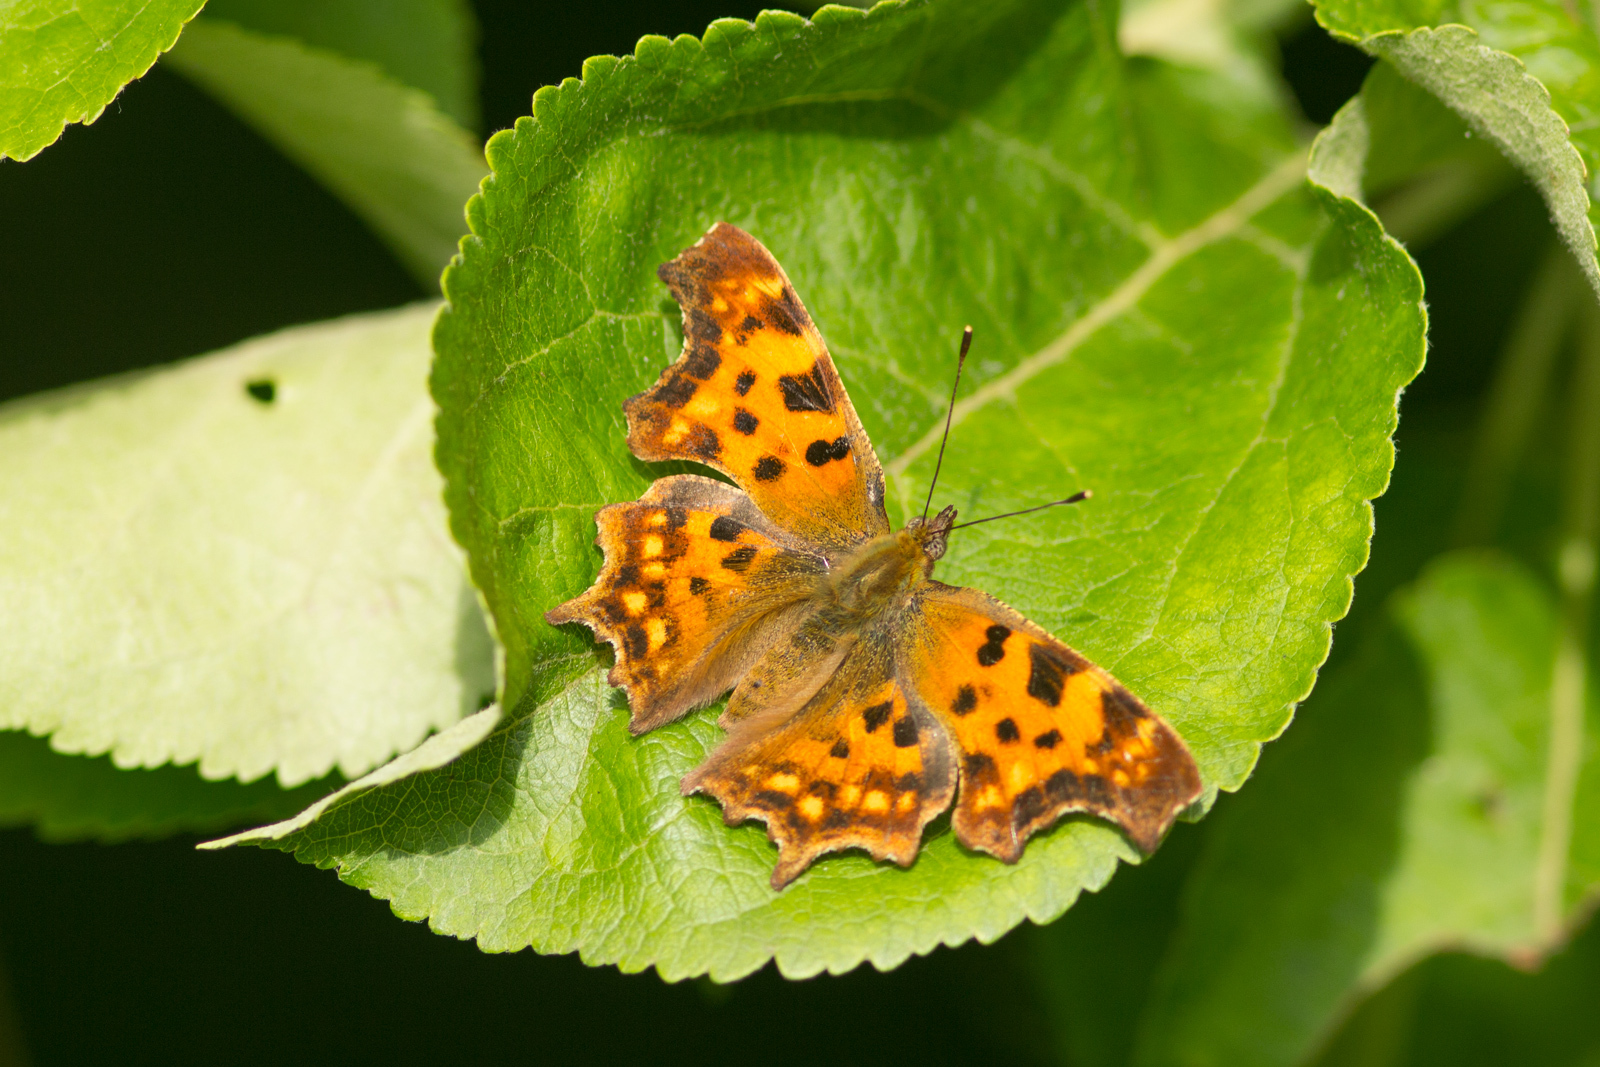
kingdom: Animalia
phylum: Arthropoda
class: Insecta
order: Lepidoptera
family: Nymphalidae
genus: Polygonia
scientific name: Polygonia c-album
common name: Comma
